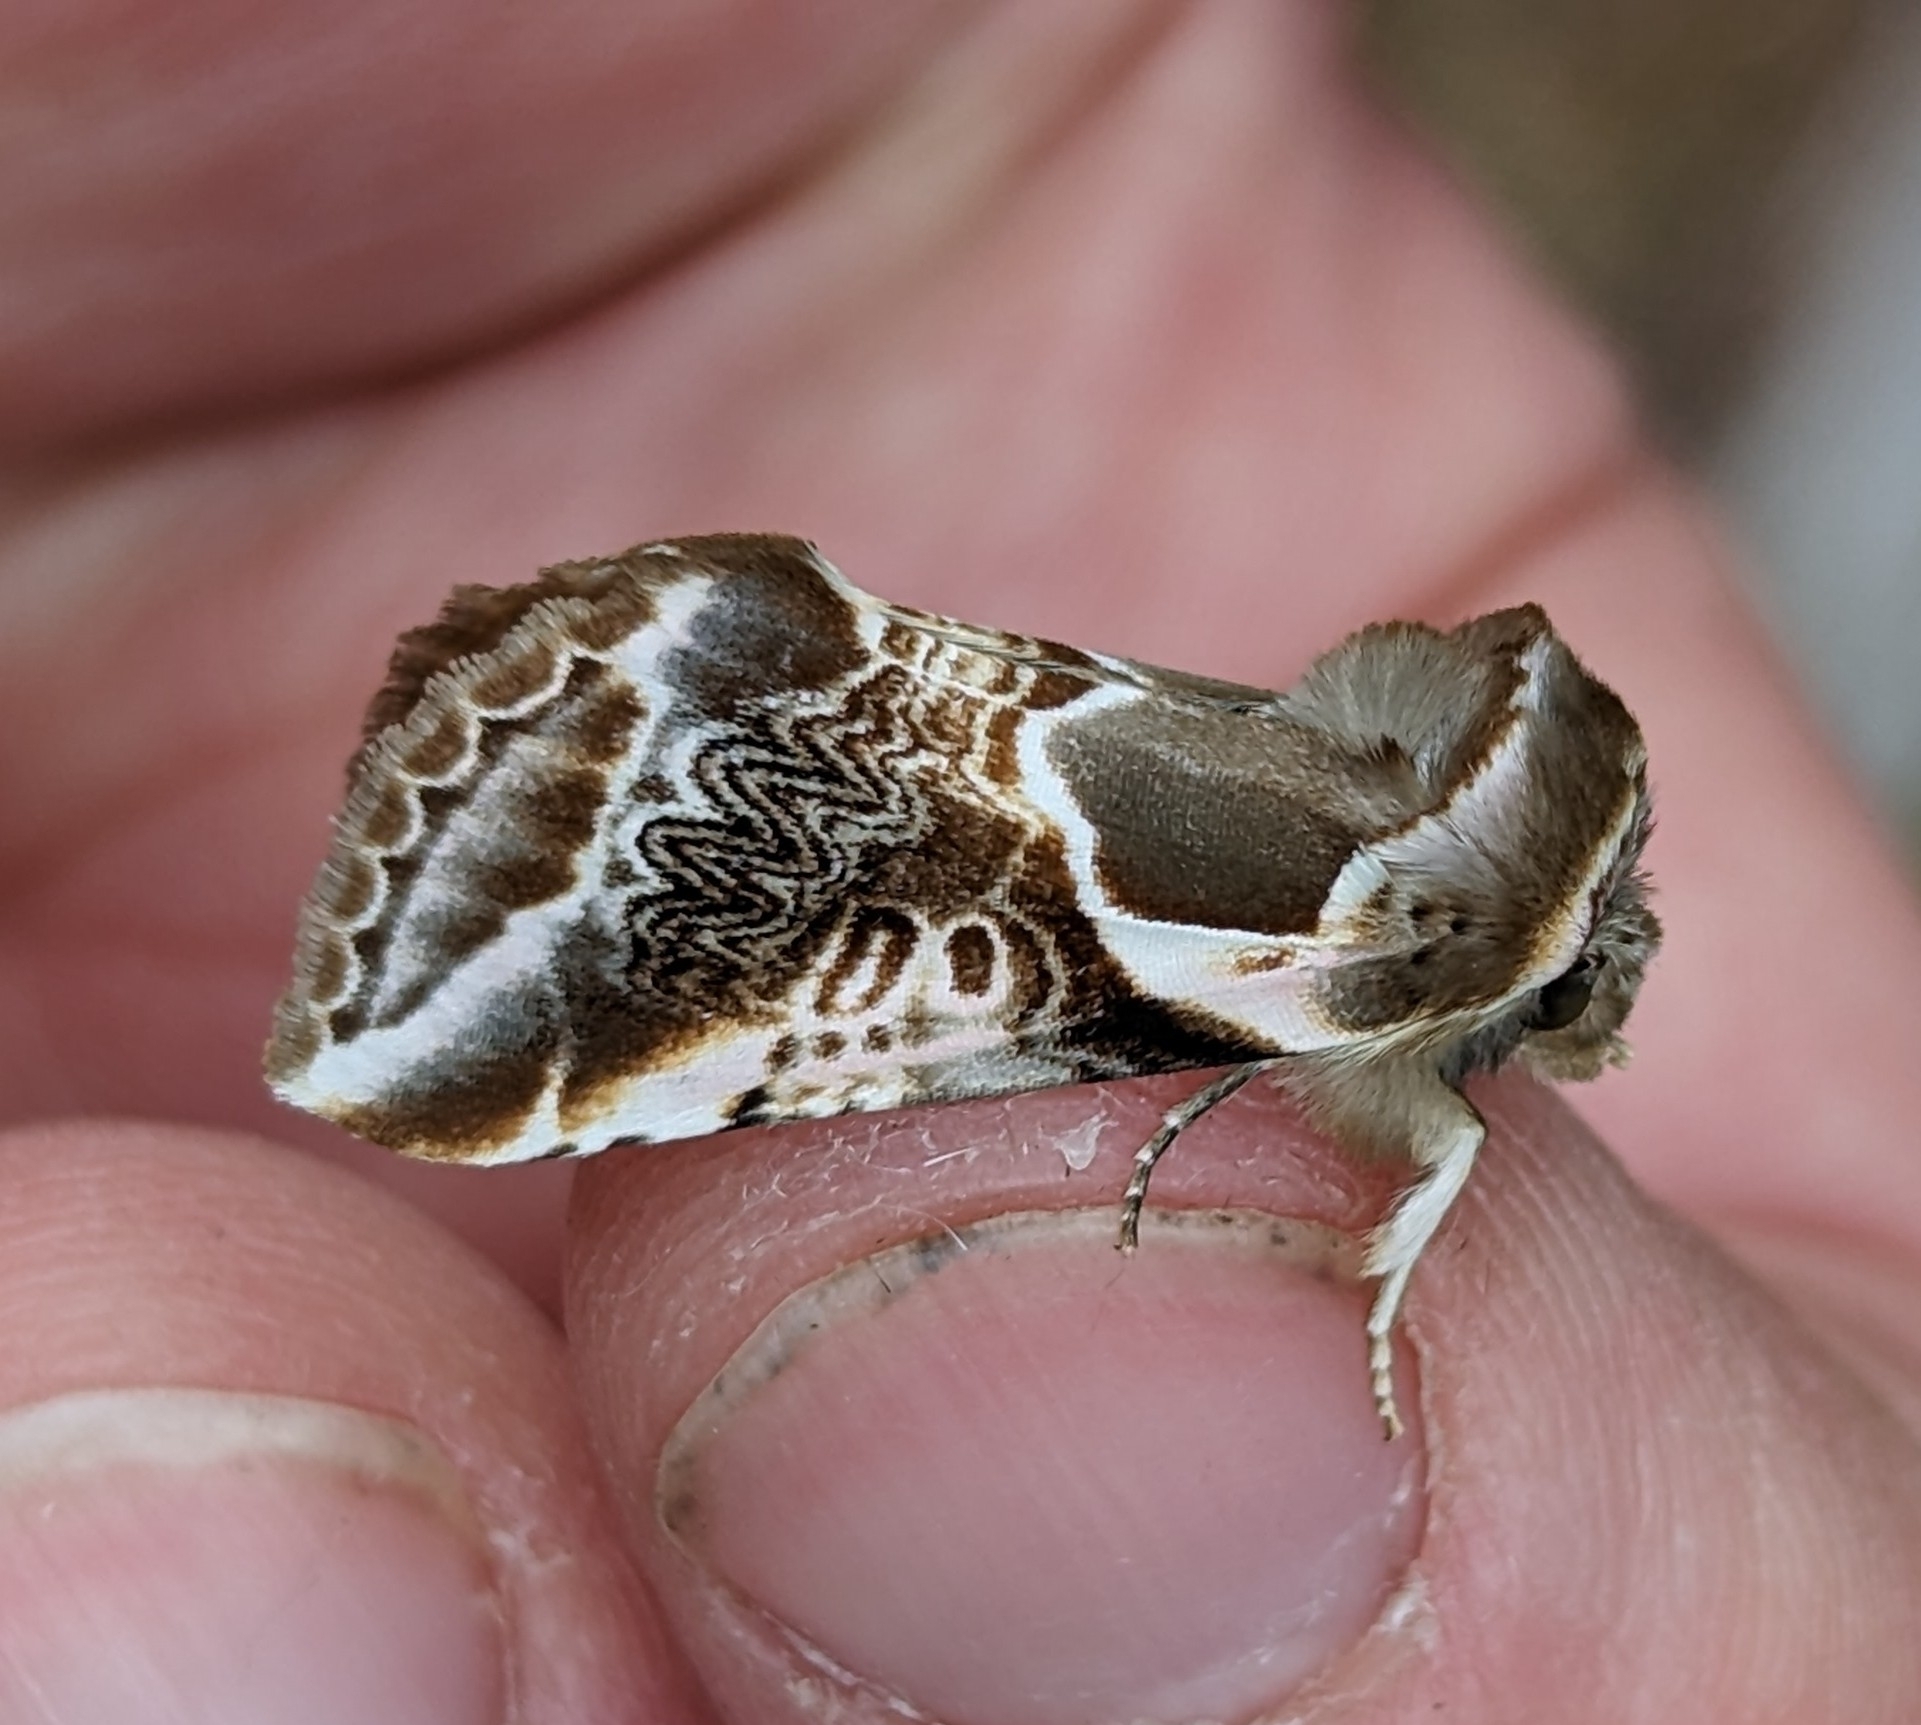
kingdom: Animalia
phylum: Arthropoda
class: Insecta
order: Lepidoptera
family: Drepanidae
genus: Habrosyne
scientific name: Habrosyne scripta
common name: Lettered habrosyne moth
